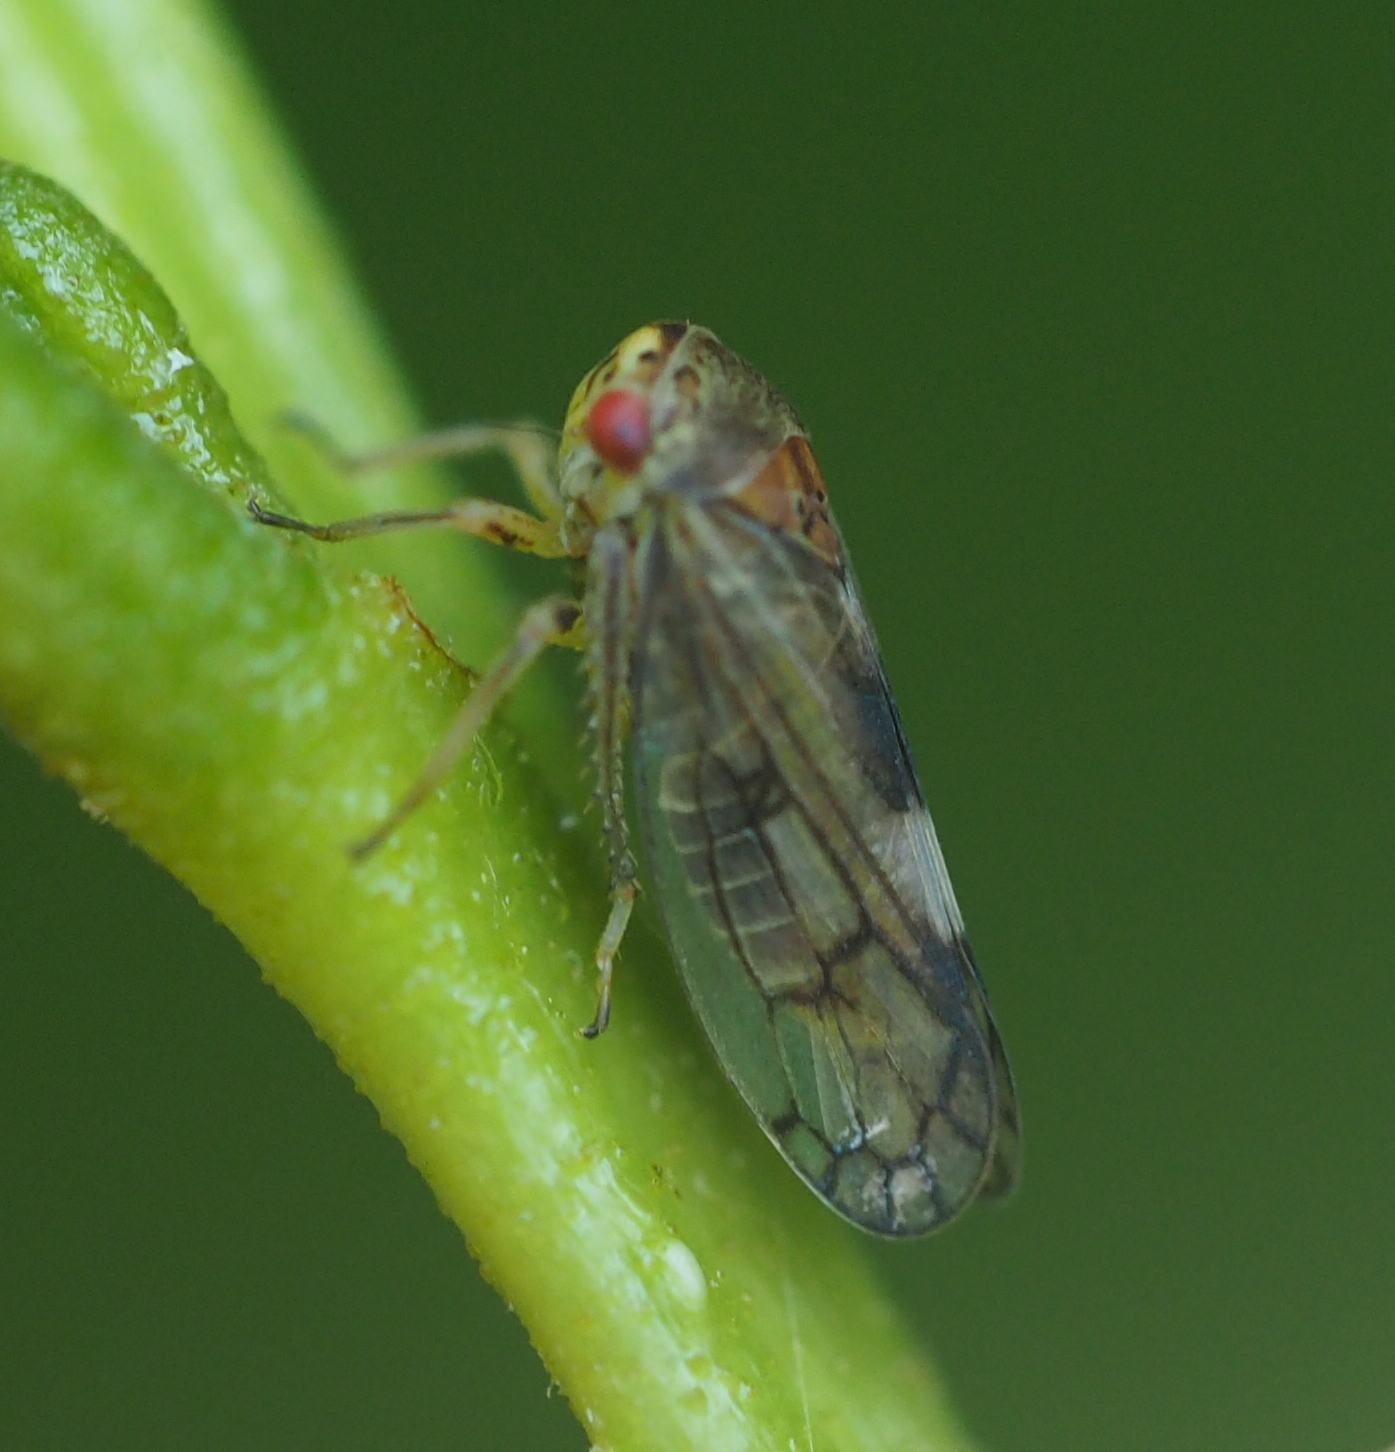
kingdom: Animalia
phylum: Arthropoda
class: Insecta
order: Hemiptera
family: Cicadellidae
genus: Oncopsis
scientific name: Oncopsis alni
